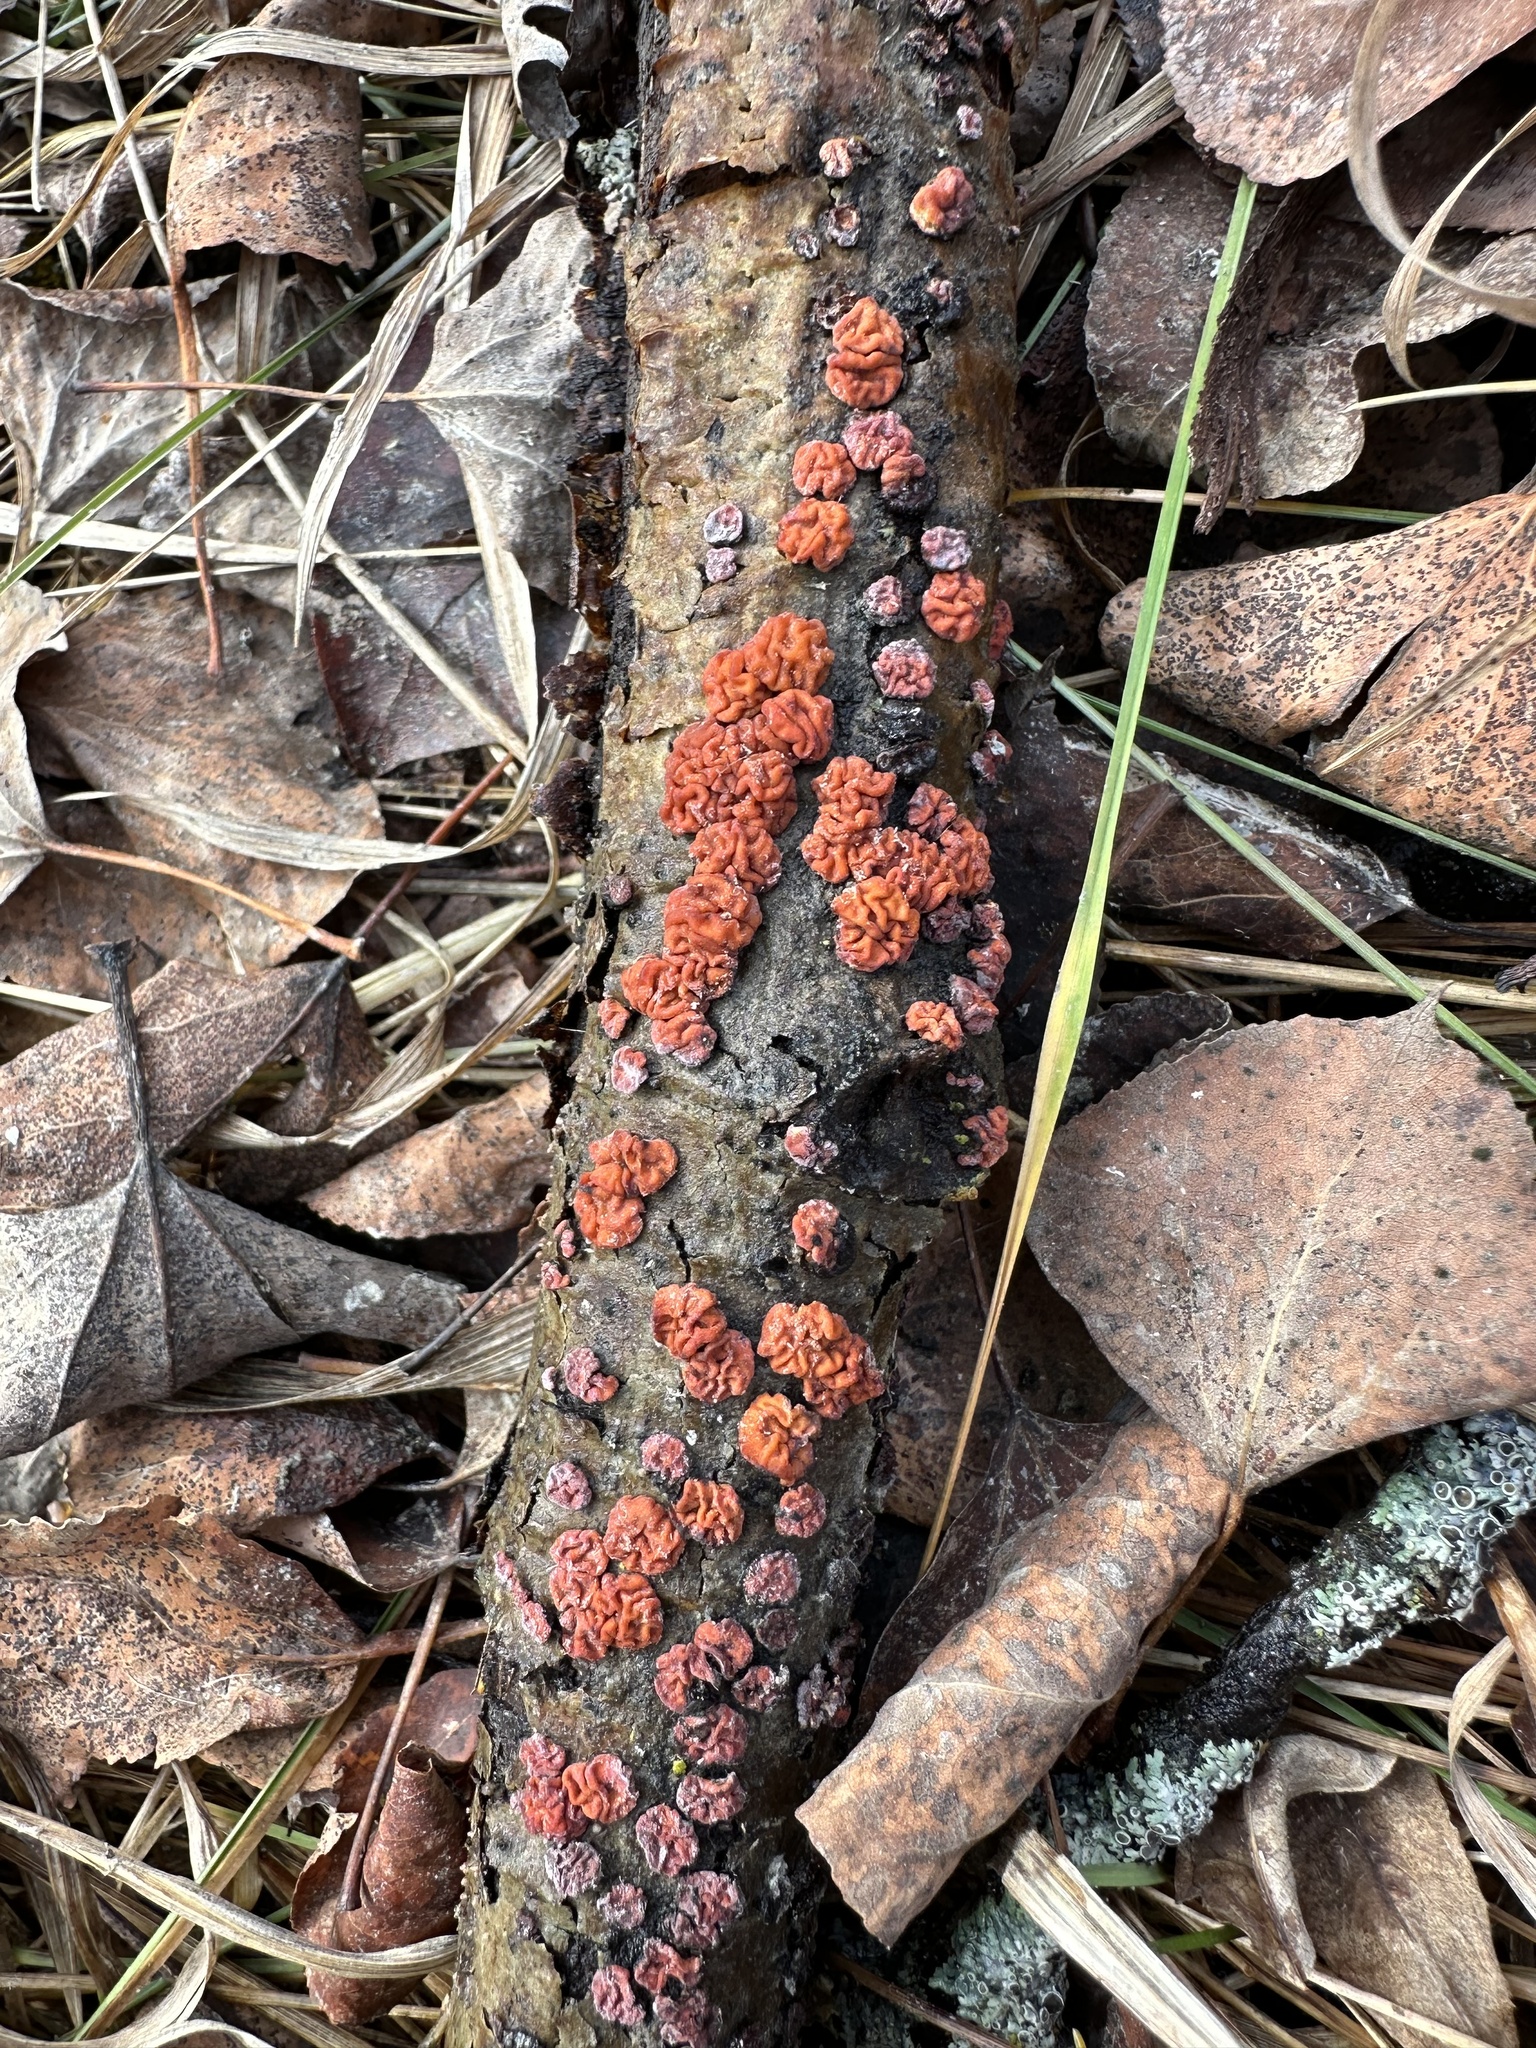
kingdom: Fungi
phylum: Basidiomycota
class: Agaricomycetes
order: Russulales
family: Peniophoraceae
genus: Peniophora
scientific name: Peniophora rufa
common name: Red tree brain fungus
